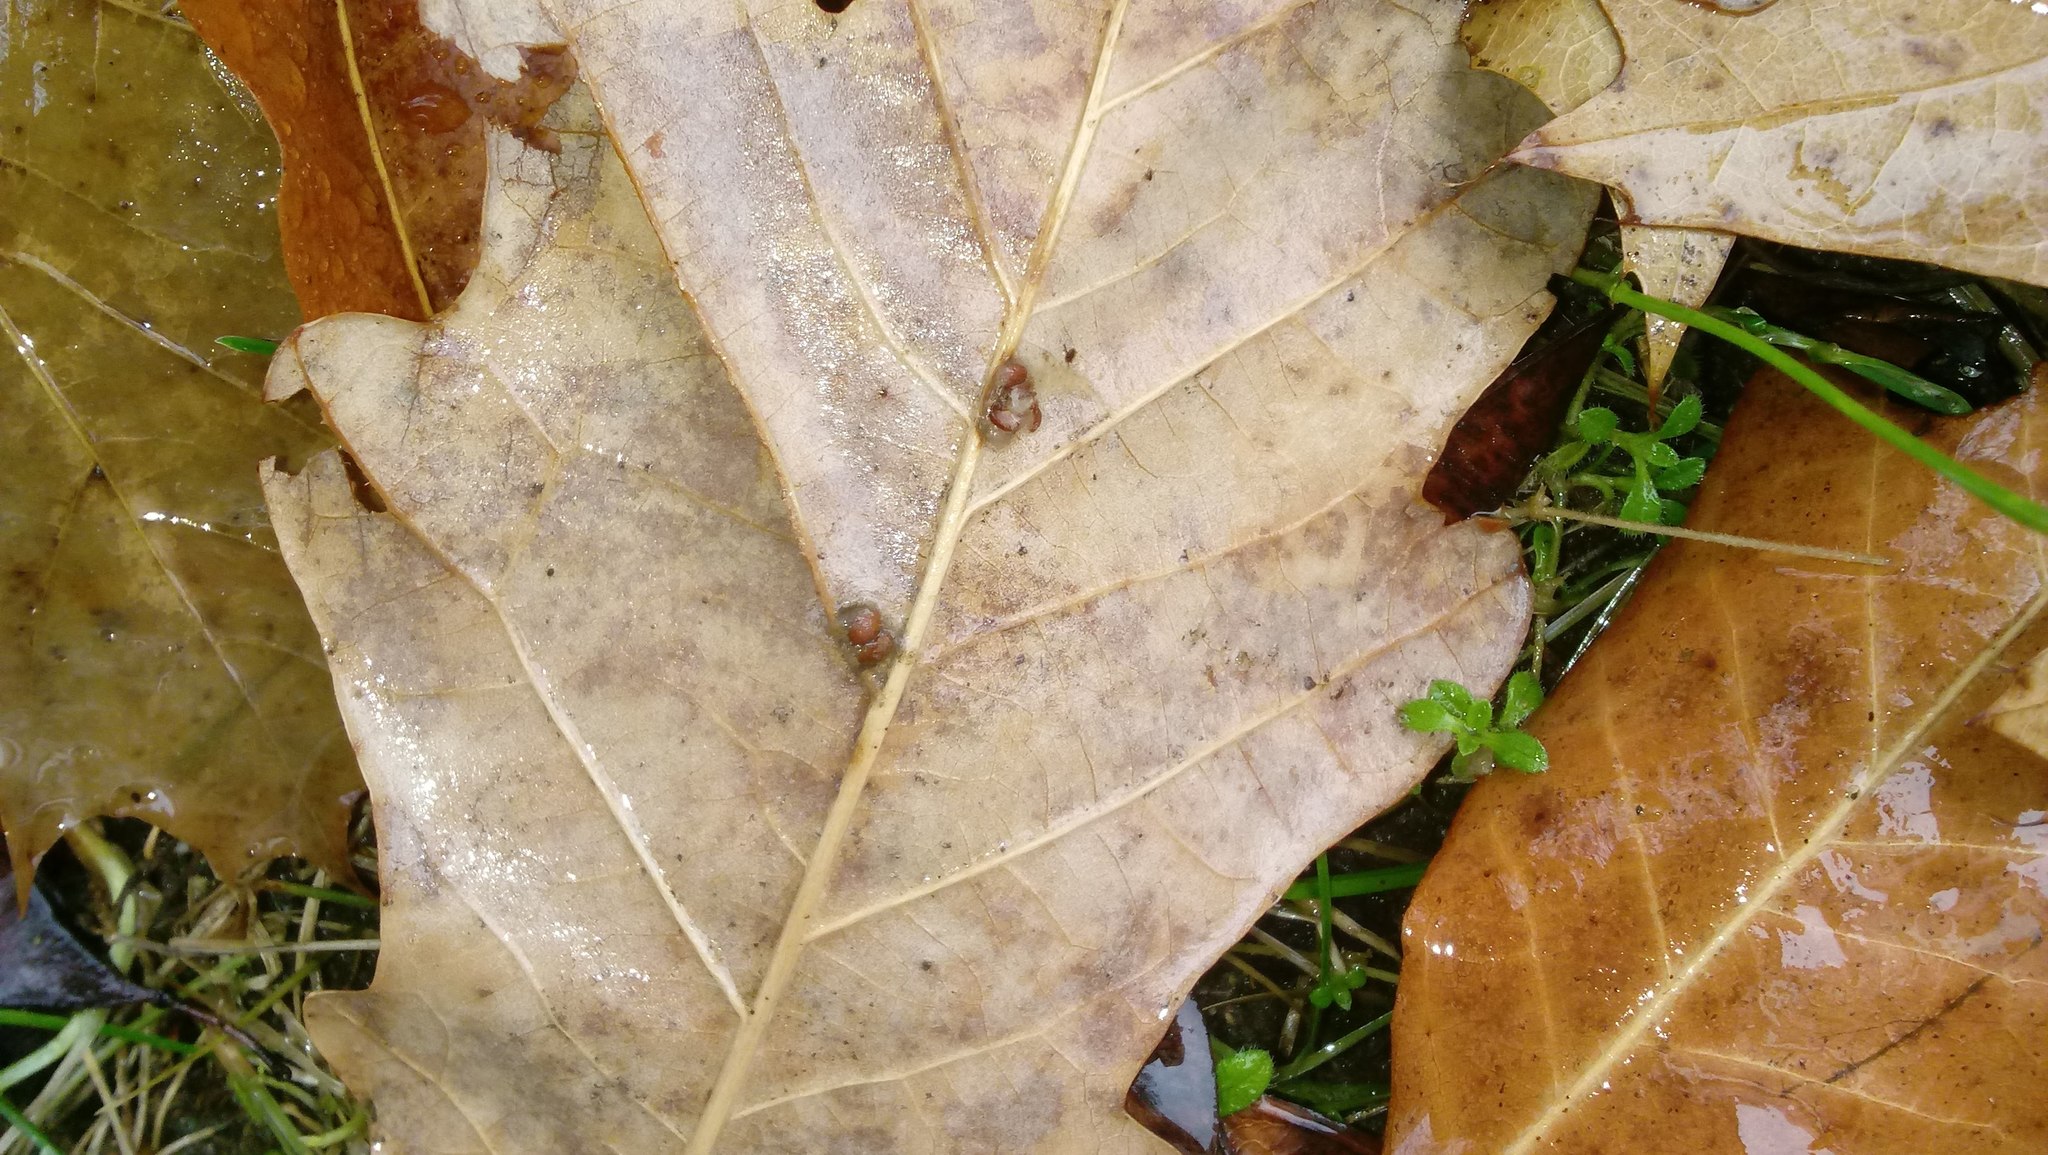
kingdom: Animalia
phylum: Arthropoda
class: Insecta
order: Hymenoptera
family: Cynipidae
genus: Andricus
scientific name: Andricus Druon ignotum
